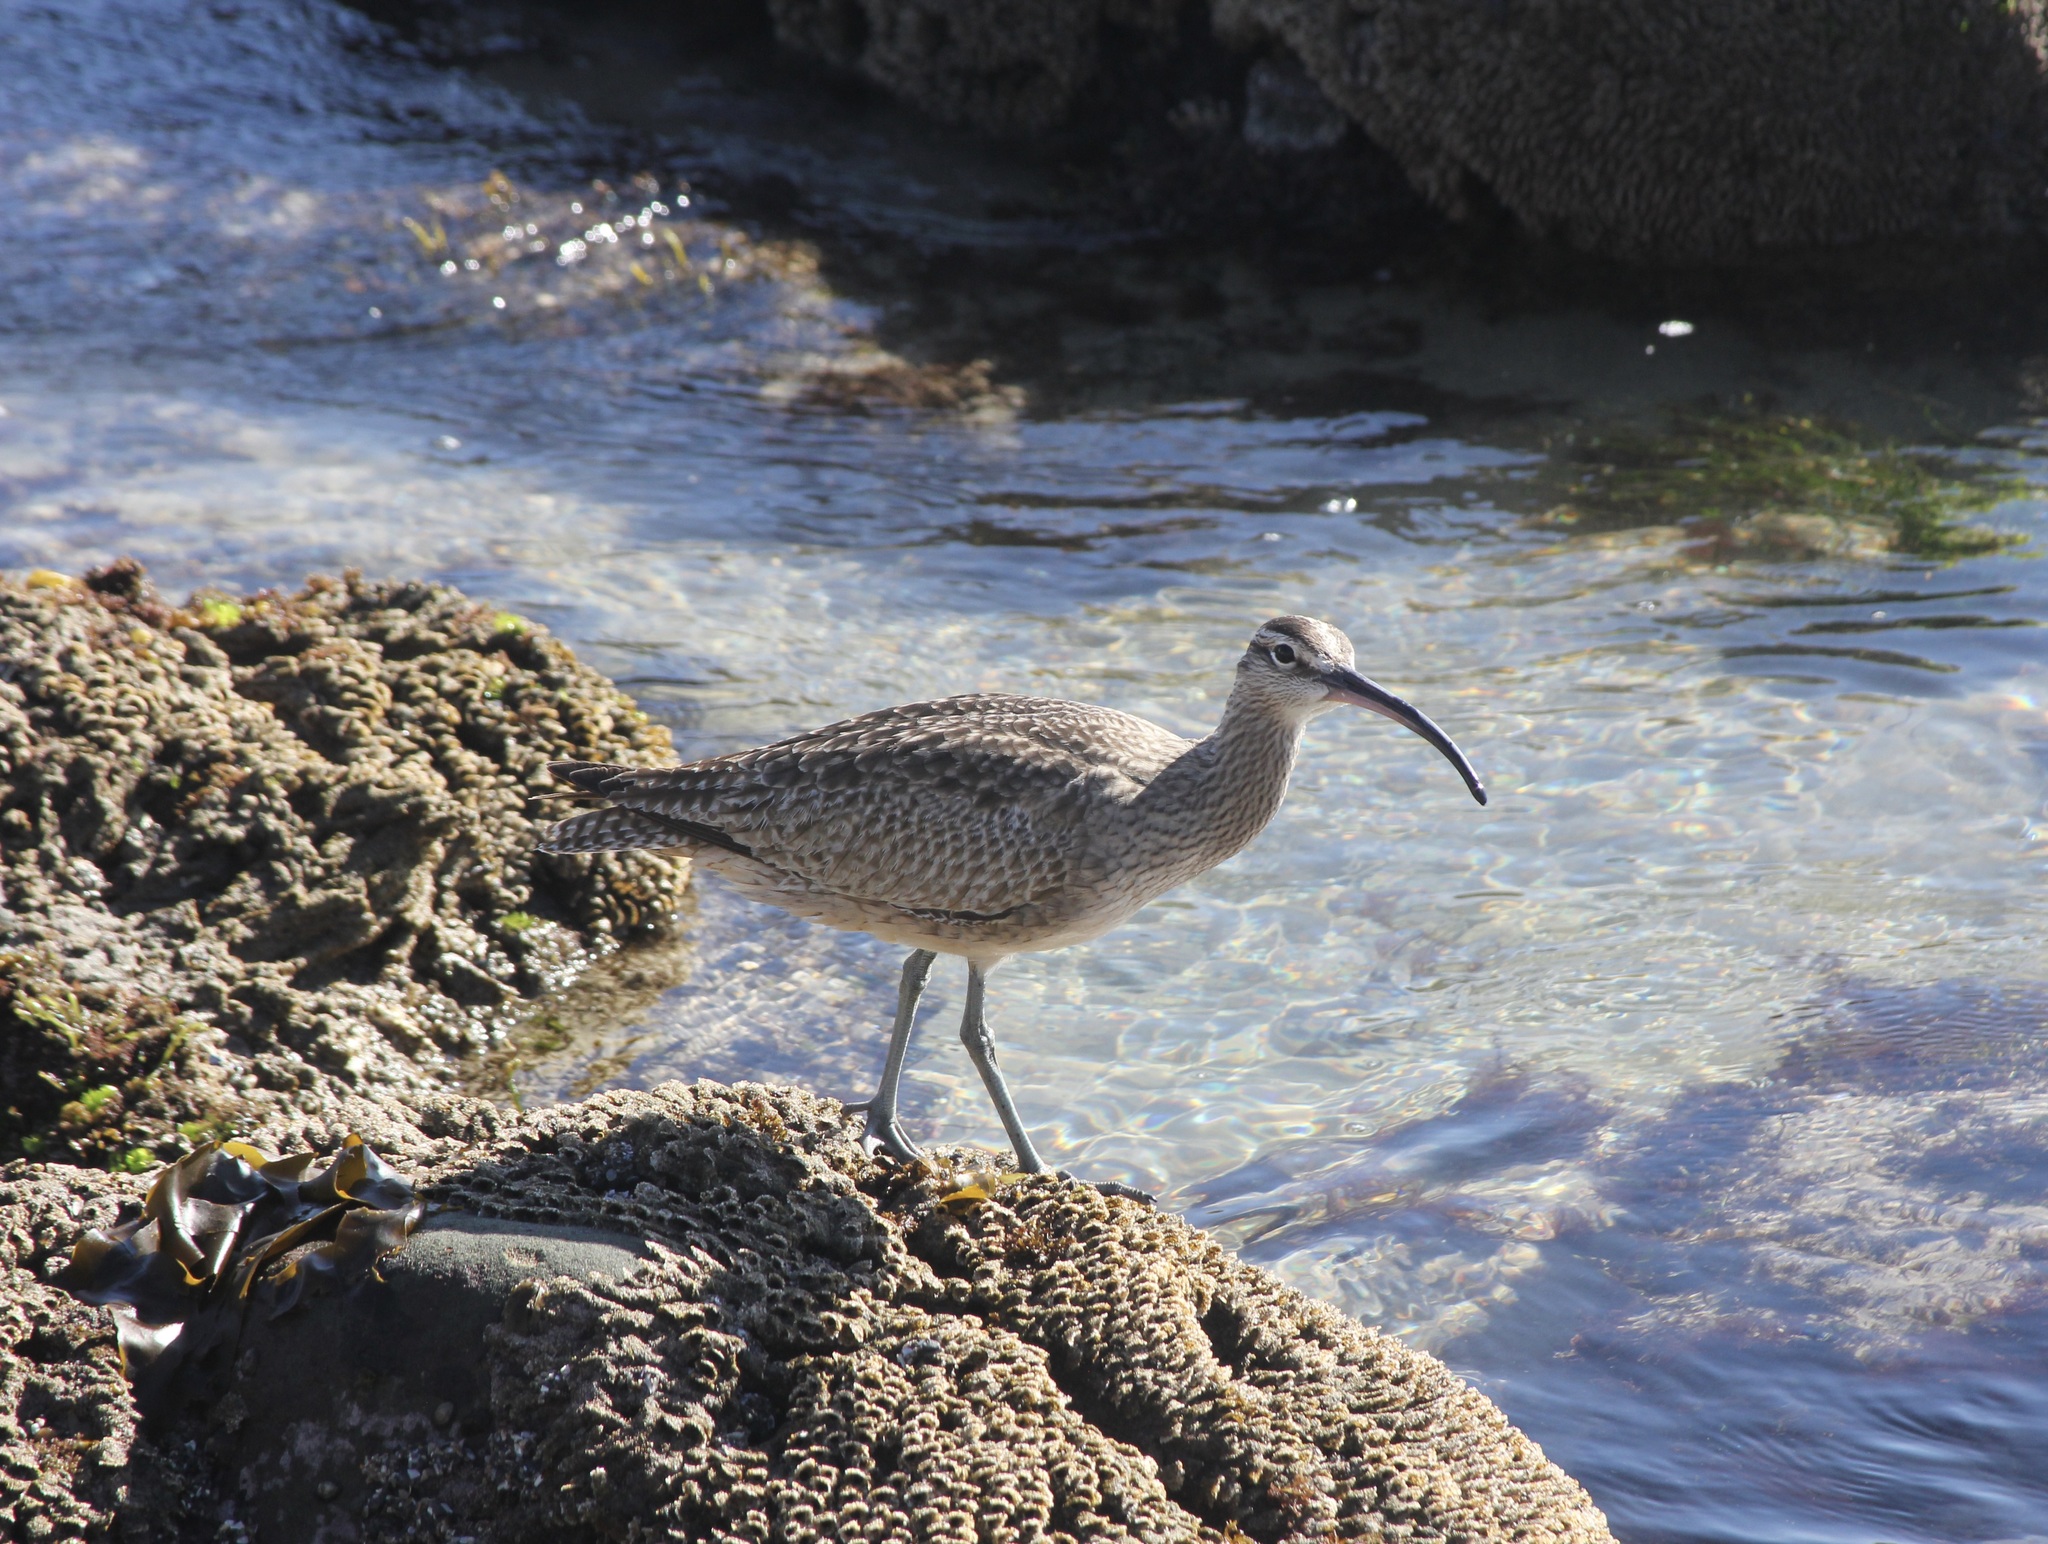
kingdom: Animalia
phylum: Chordata
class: Aves
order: Charadriiformes
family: Scolopacidae
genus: Numenius
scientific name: Numenius phaeopus
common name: Whimbrel
